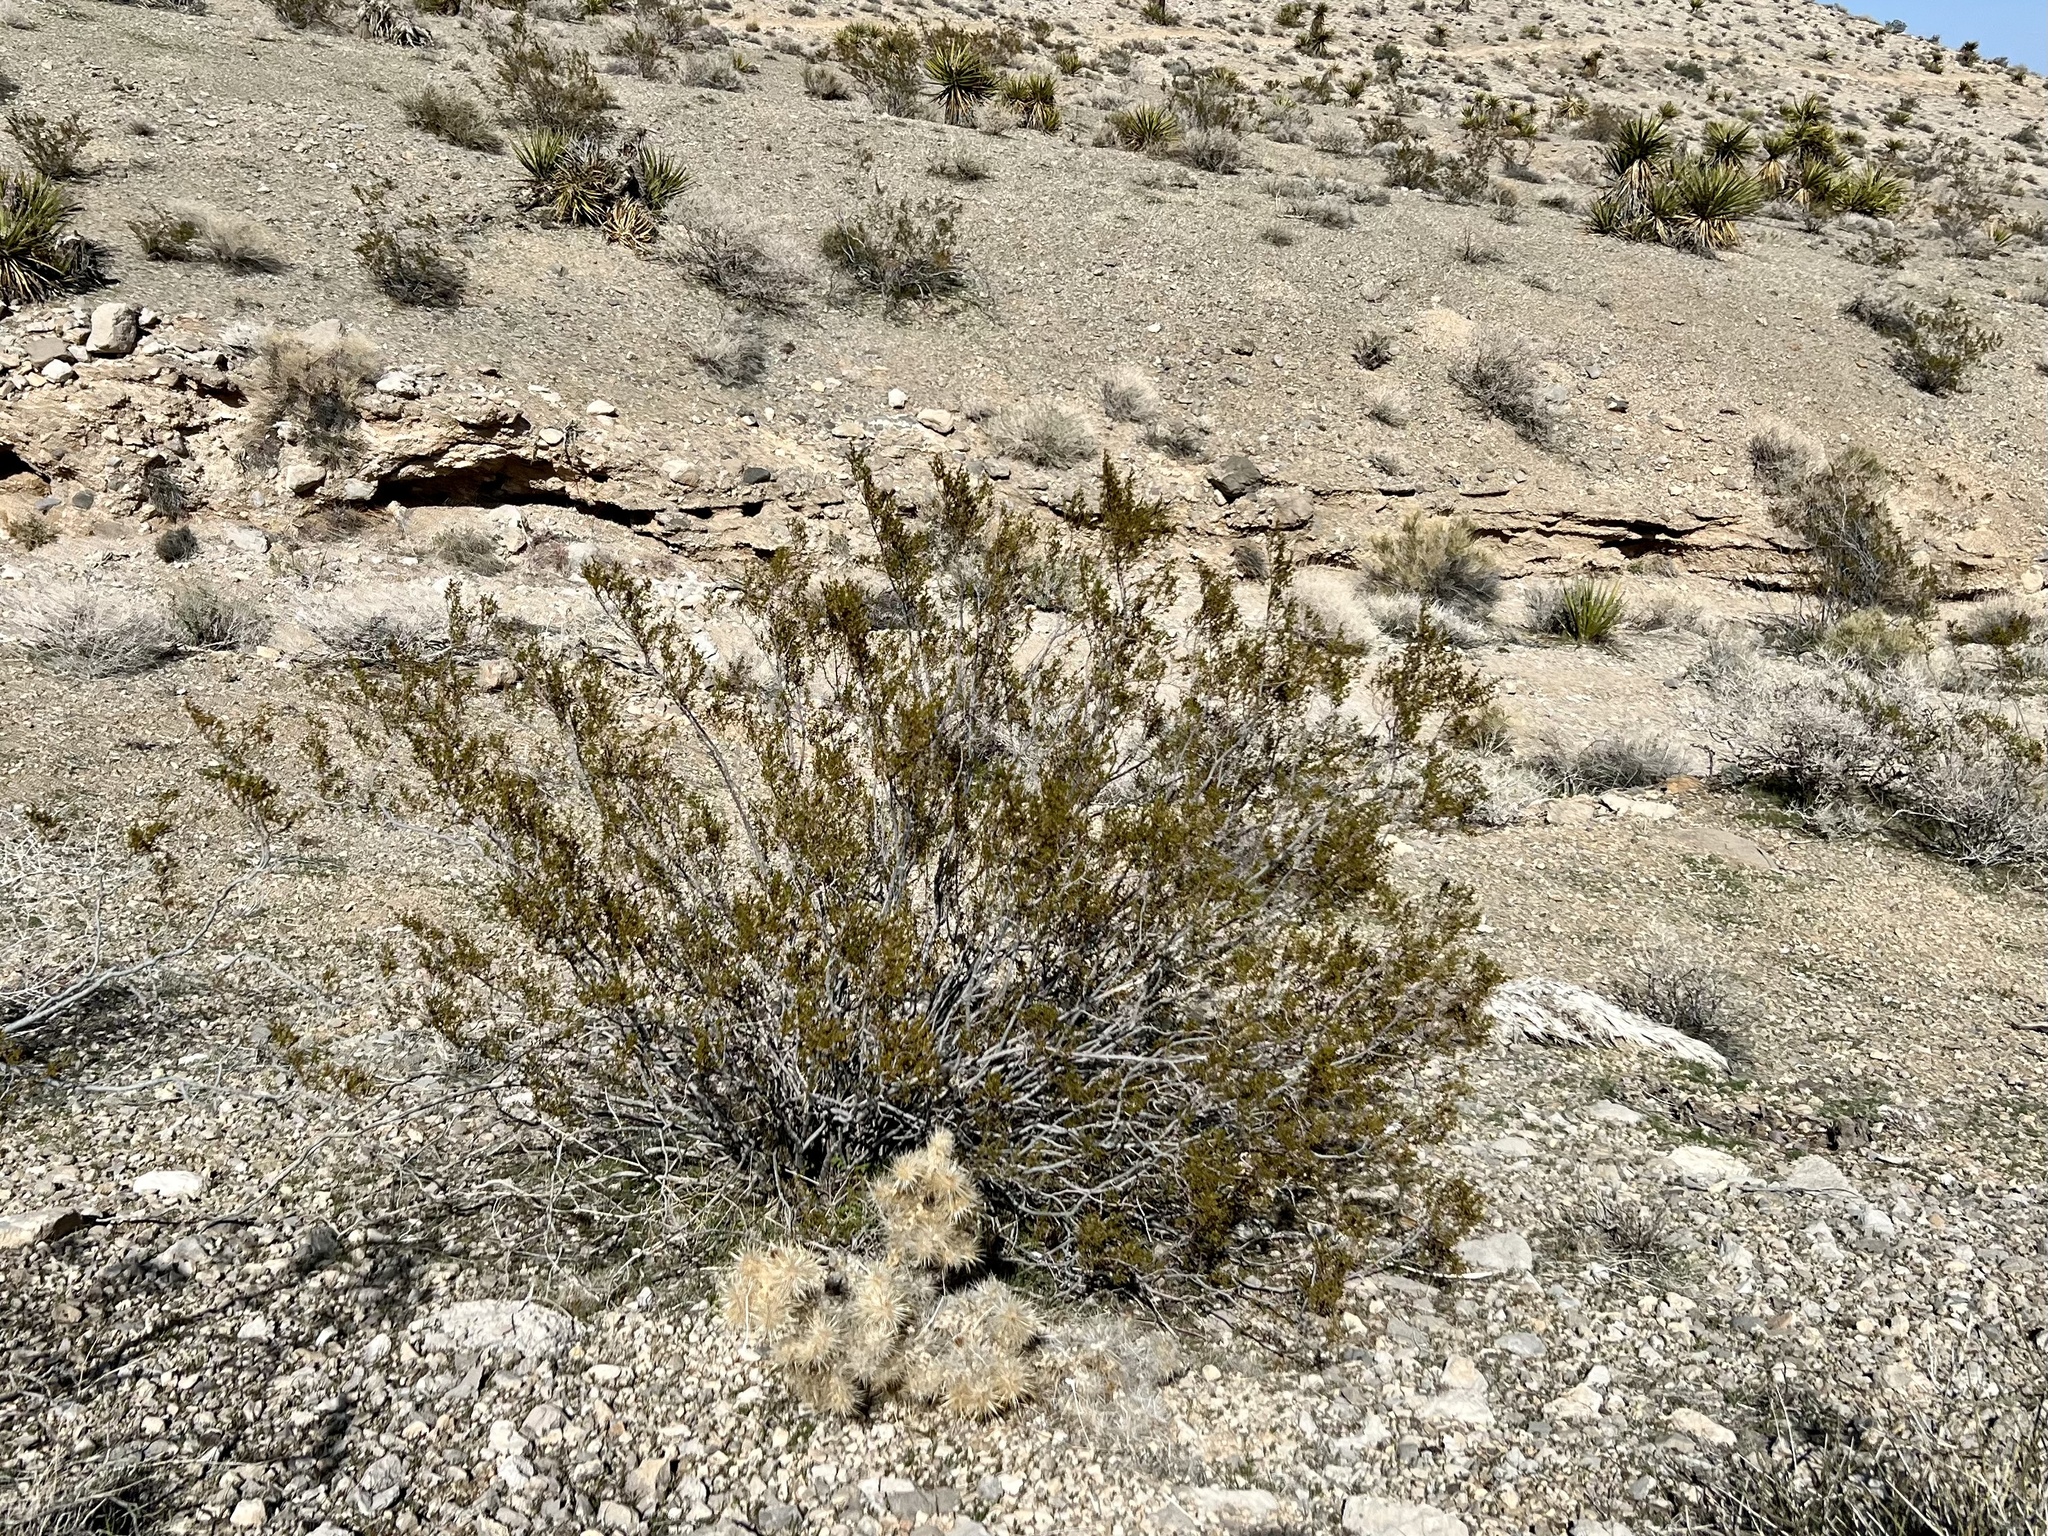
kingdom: Plantae
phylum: Tracheophyta
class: Magnoliopsida
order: Zygophyllales
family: Zygophyllaceae
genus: Larrea
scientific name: Larrea tridentata
